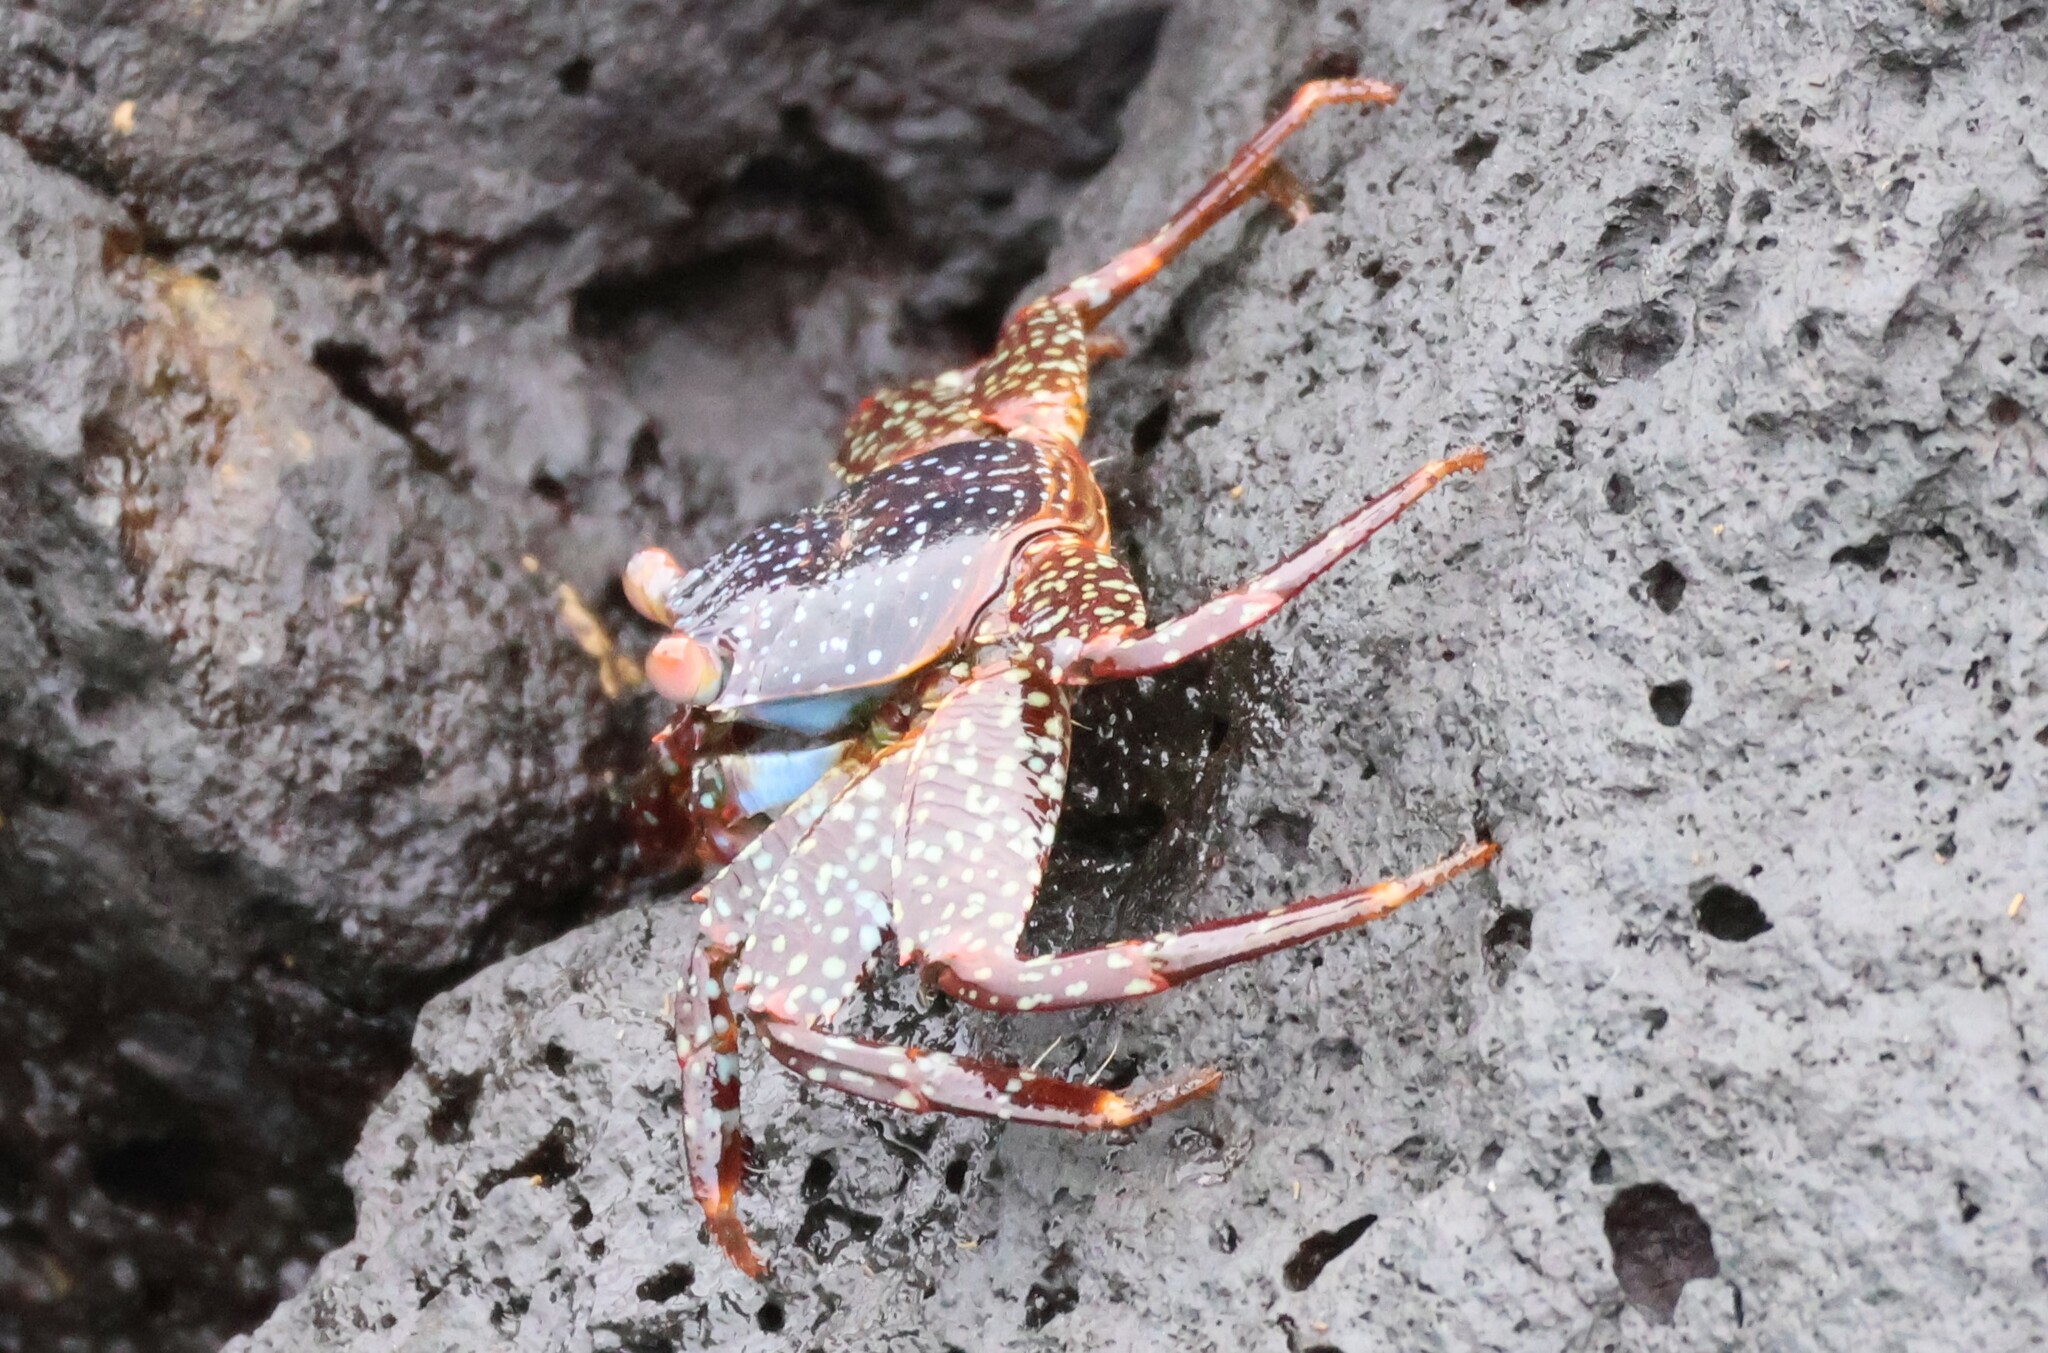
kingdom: Animalia
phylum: Arthropoda
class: Malacostraca
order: Decapoda
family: Grapsidae
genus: Grapsus
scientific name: Grapsus grapsus
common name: Sally lightfoot
